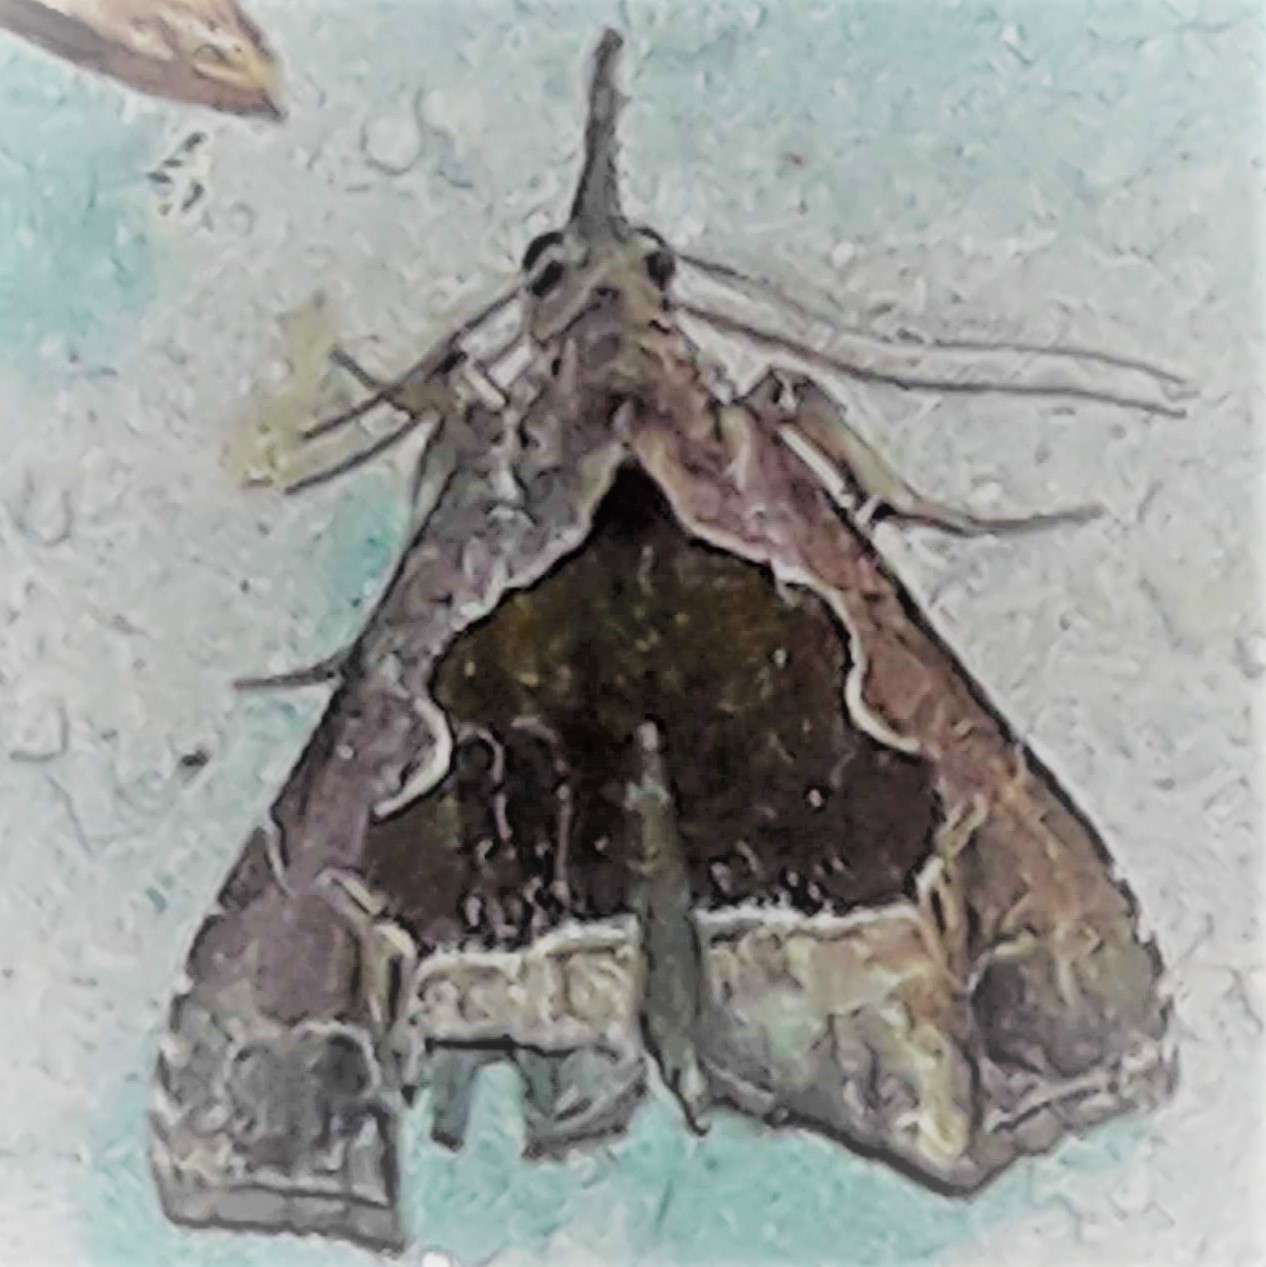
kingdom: Animalia
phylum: Arthropoda
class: Insecta
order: Lepidoptera
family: Erebidae
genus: Trauaxa
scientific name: Trauaxa obliqualis
